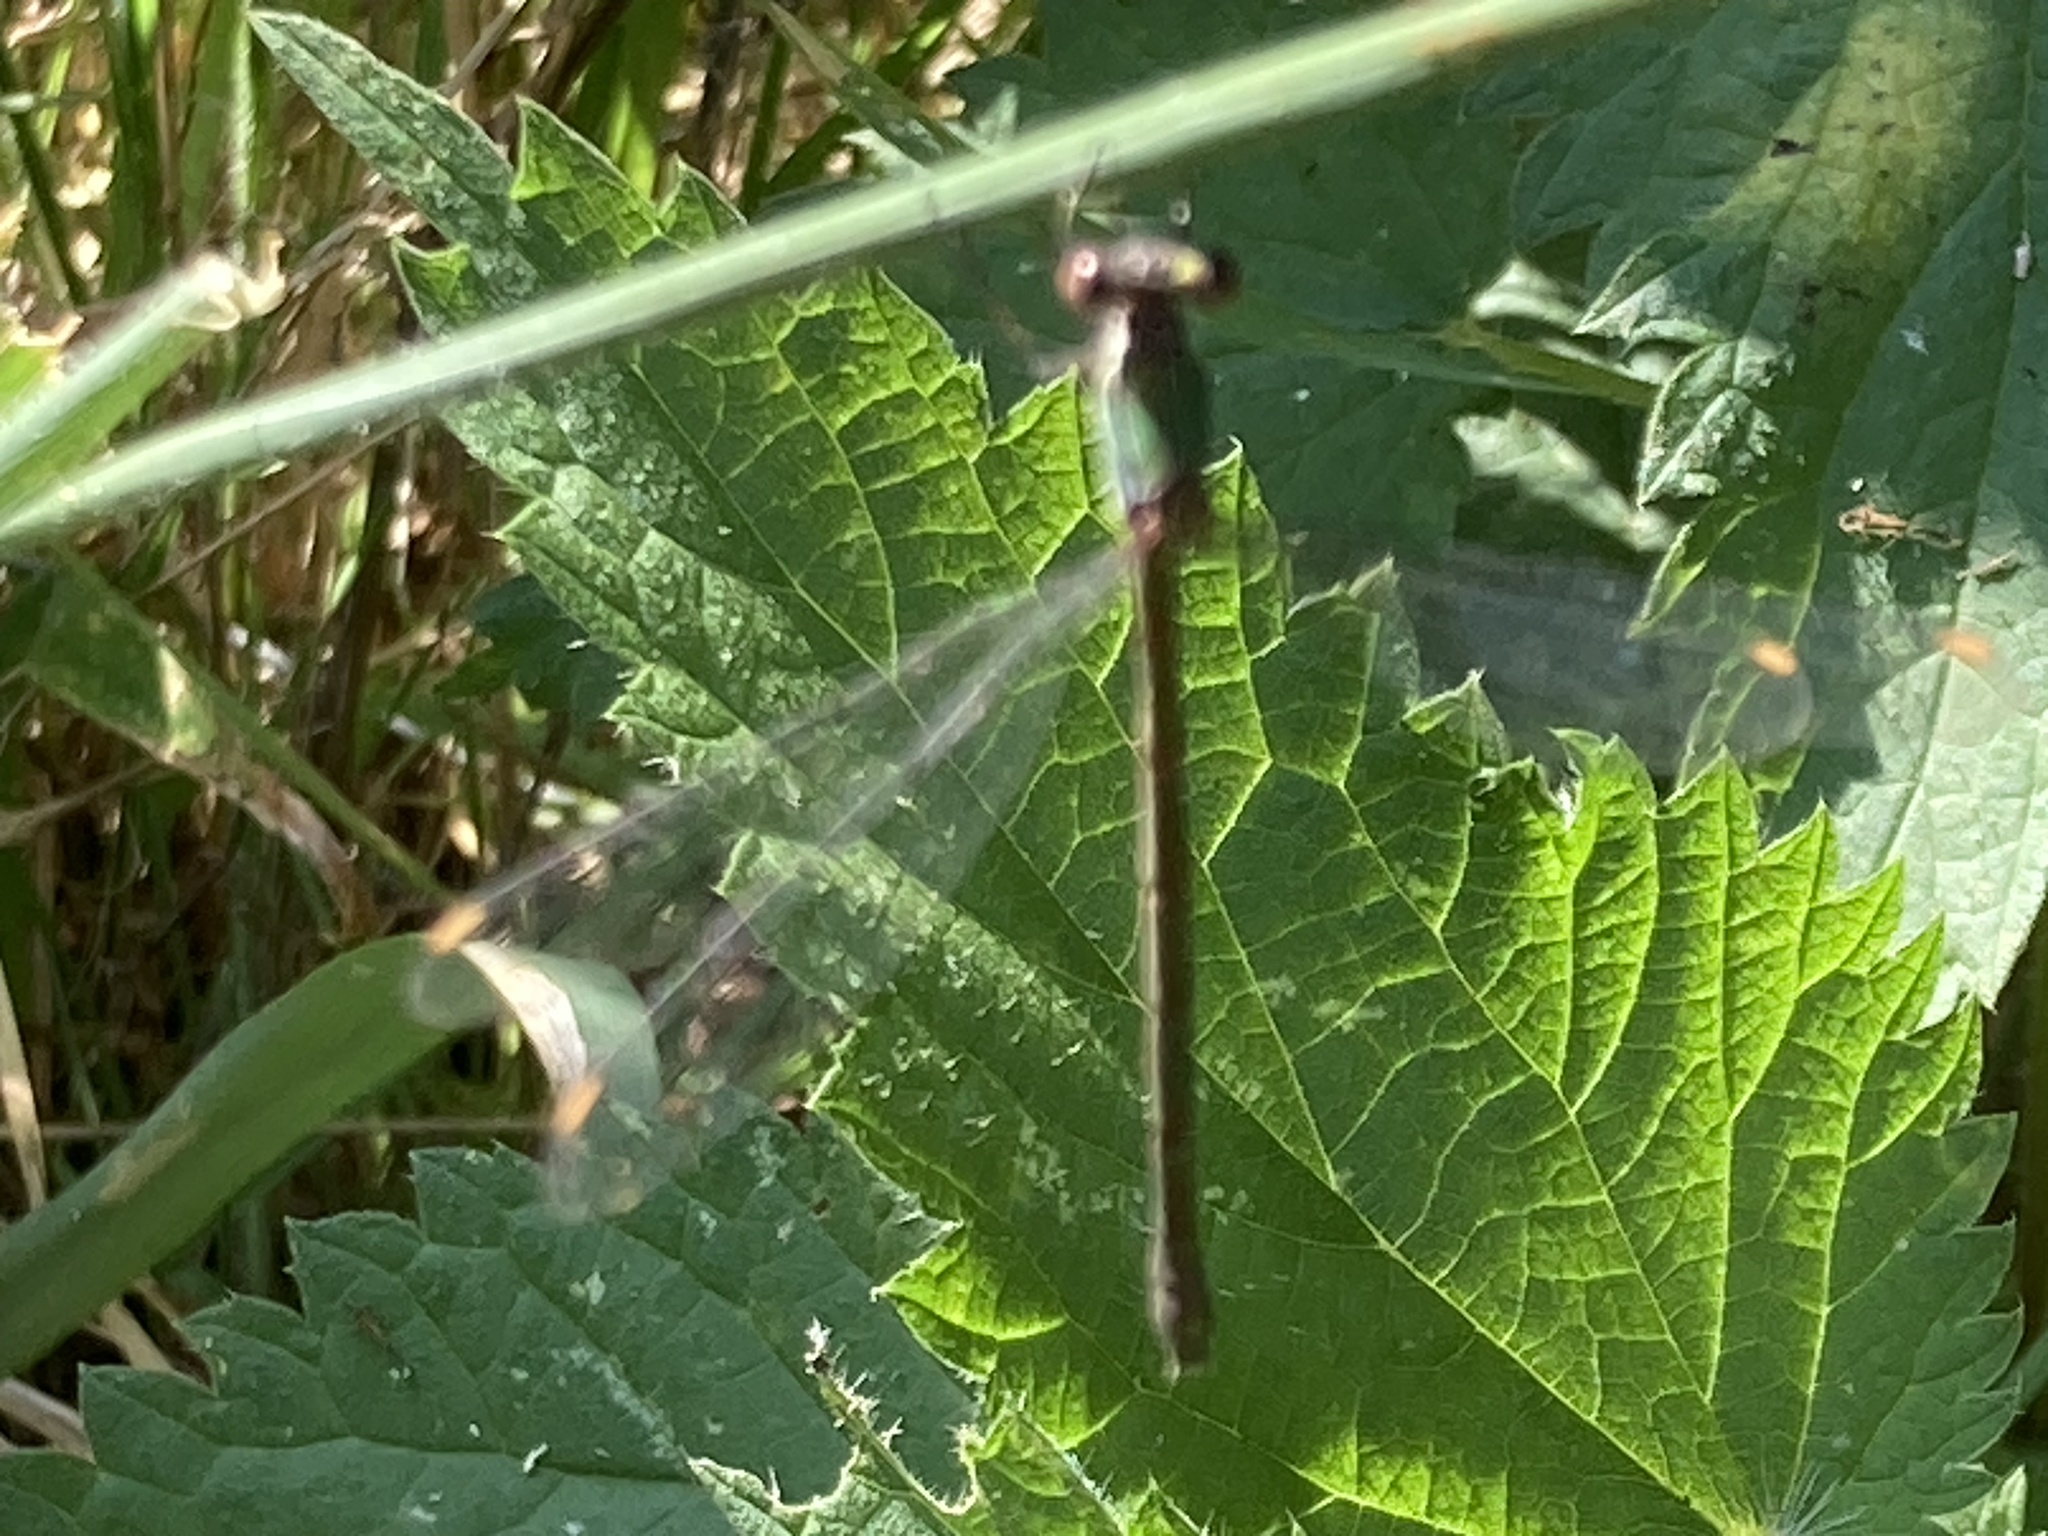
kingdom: Animalia
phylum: Arthropoda
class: Insecta
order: Odonata
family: Lestidae
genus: Chalcolestes
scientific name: Chalcolestes viridis
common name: Green emerald damselfly
